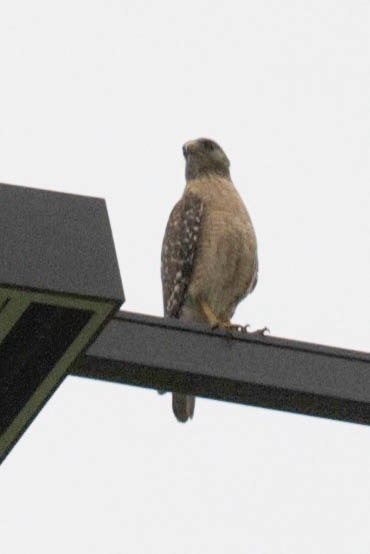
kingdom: Animalia
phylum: Chordata
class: Aves
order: Accipitriformes
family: Accipitridae
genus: Buteo
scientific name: Buteo lineatus
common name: Red-shouldered hawk
